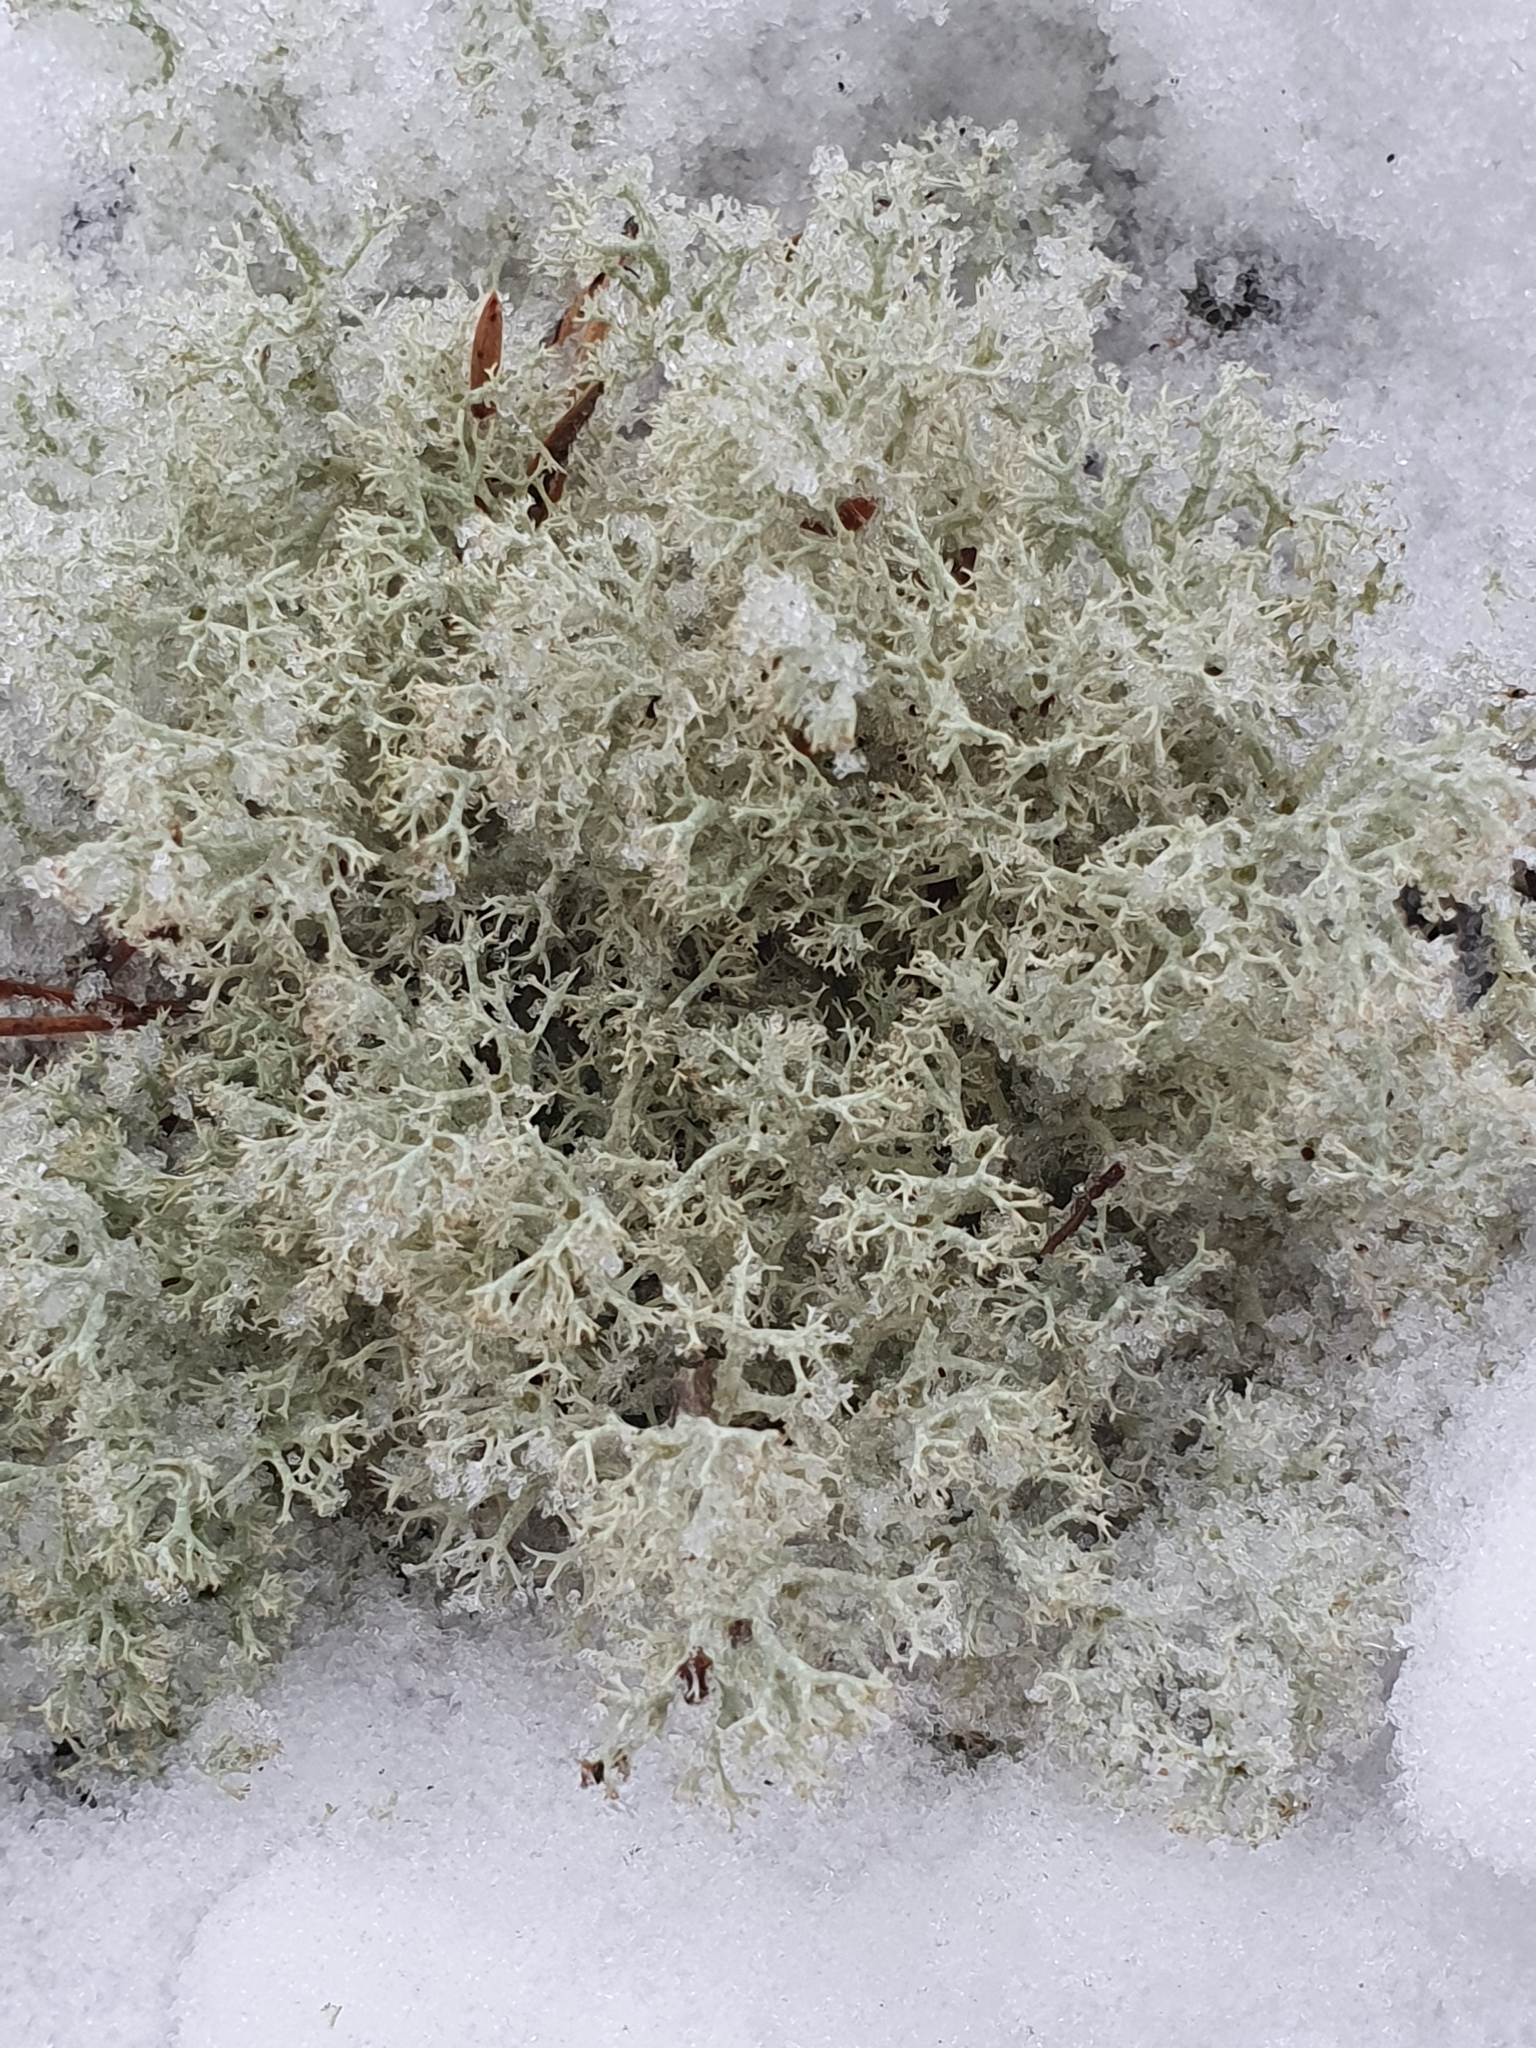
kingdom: Fungi
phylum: Ascomycota
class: Lecanoromycetes
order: Lecanorales
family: Cladoniaceae
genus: Cladonia
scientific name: Cladonia arbuscula
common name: Reindeer lichen
